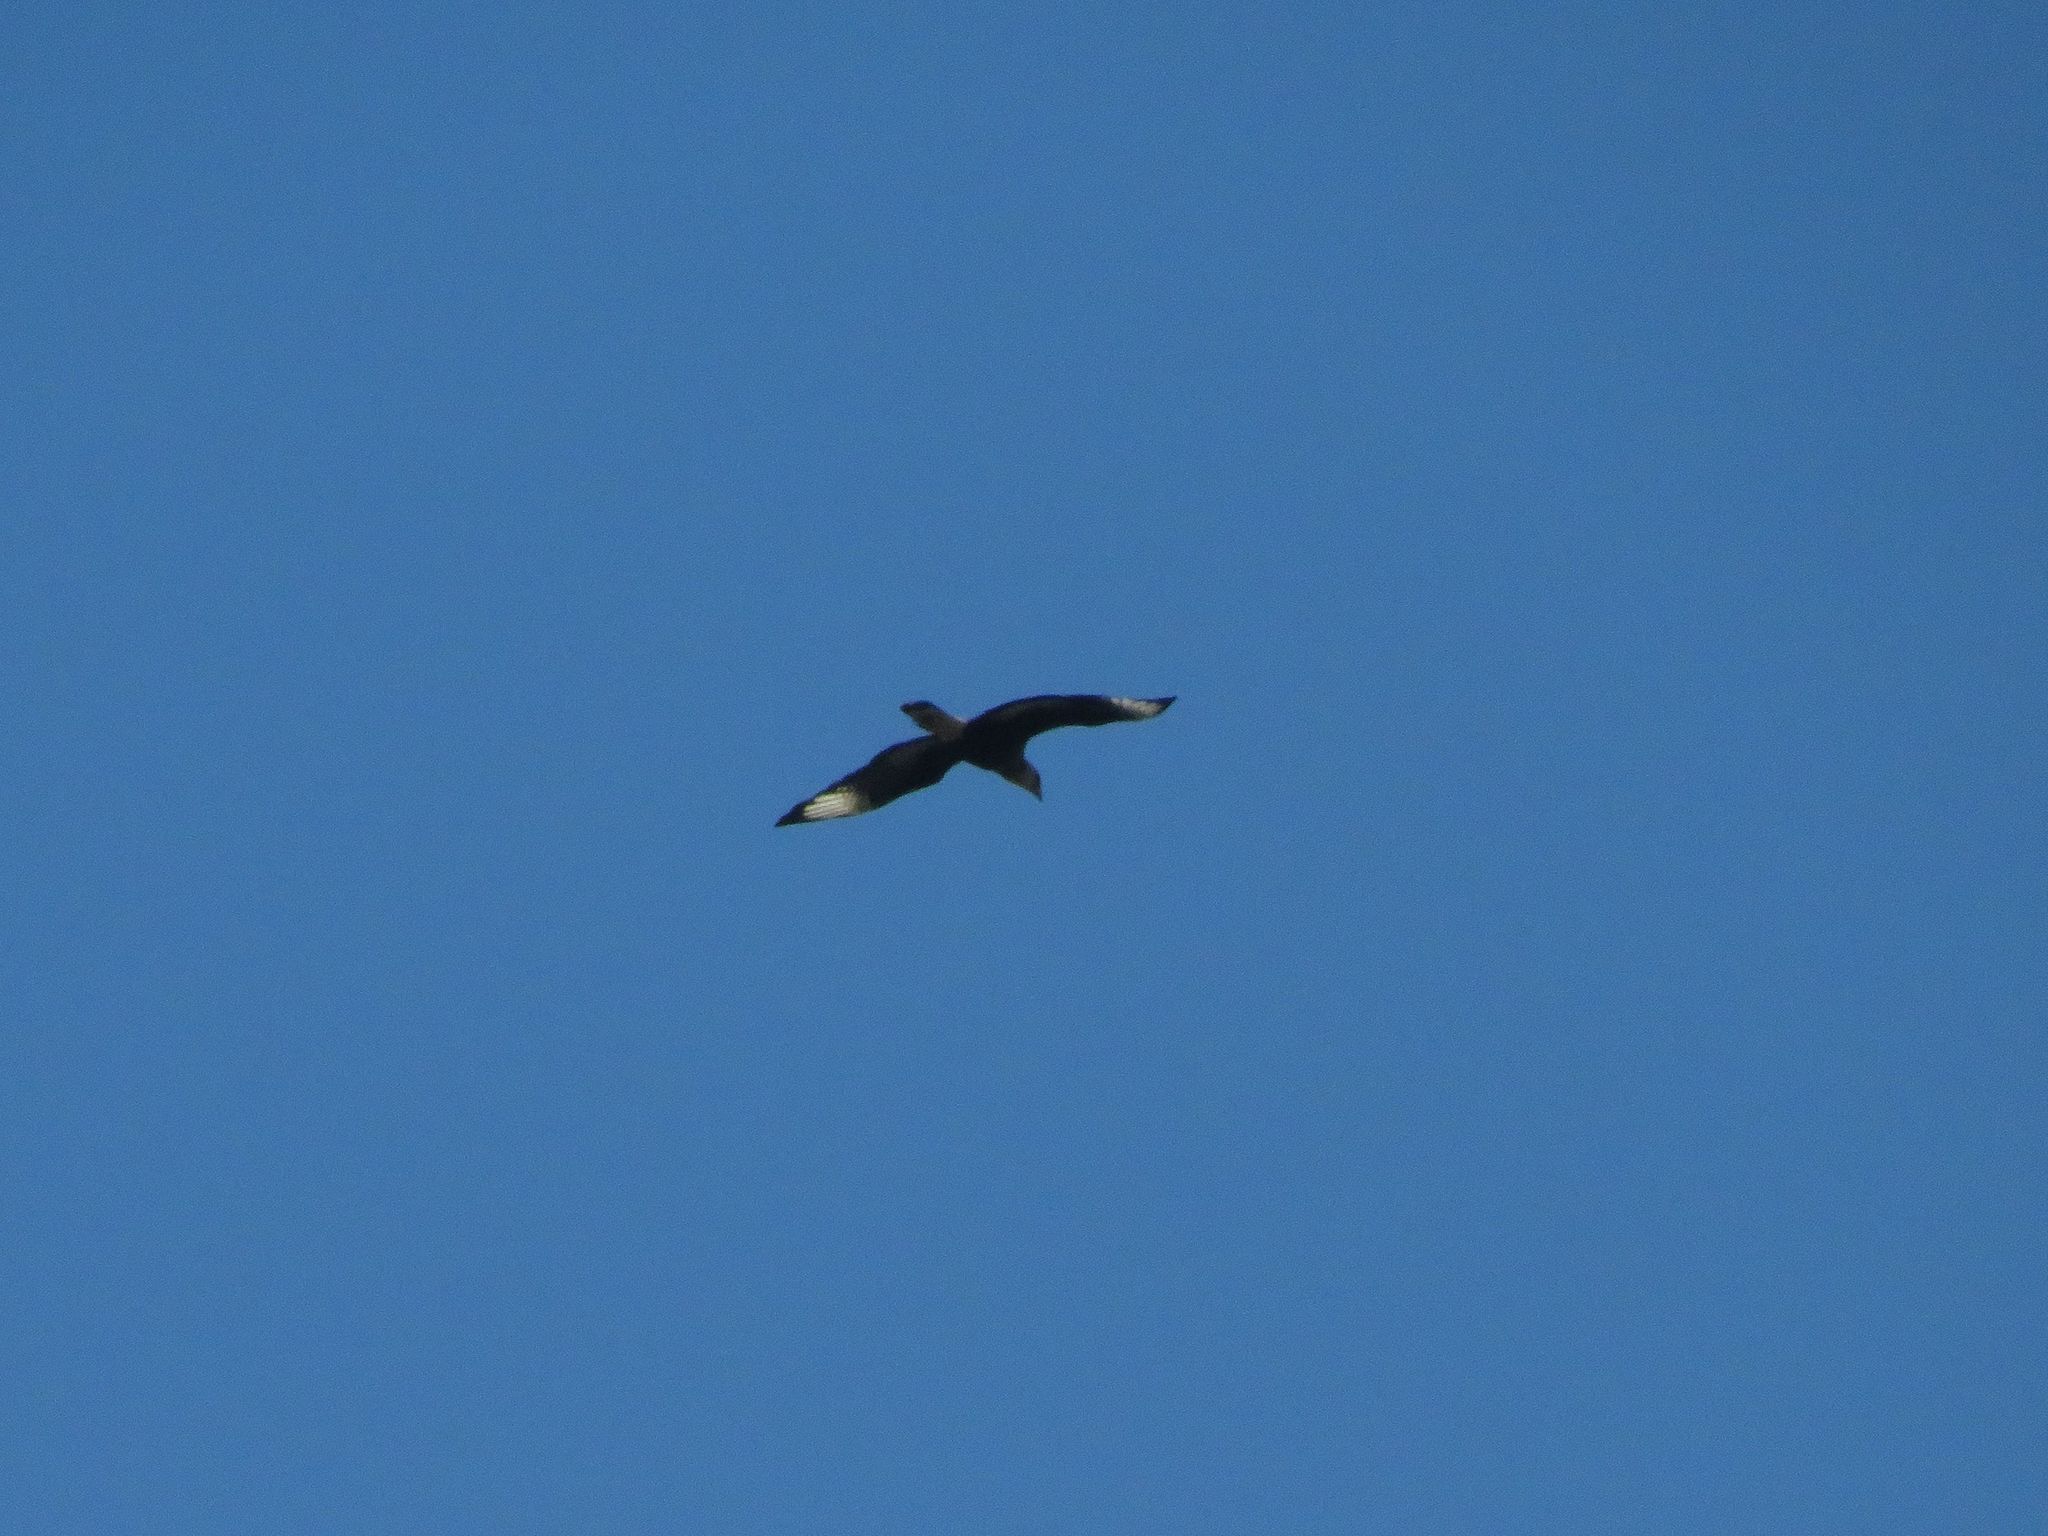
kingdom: Animalia
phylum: Chordata
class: Aves
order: Falconiformes
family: Falconidae
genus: Caracara
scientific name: Caracara plancus
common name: Southern caracara
